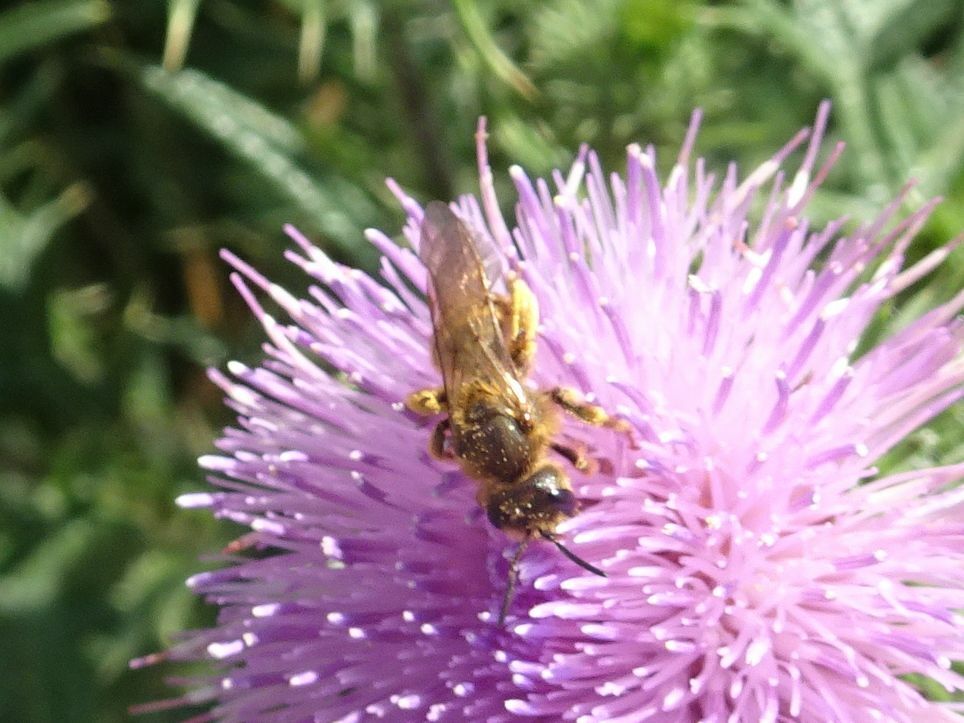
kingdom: Animalia
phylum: Arthropoda
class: Insecta
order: Hymenoptera
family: Halictidae
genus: Halictus
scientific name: Halictus scabiosae
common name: Great banded furrow bee
